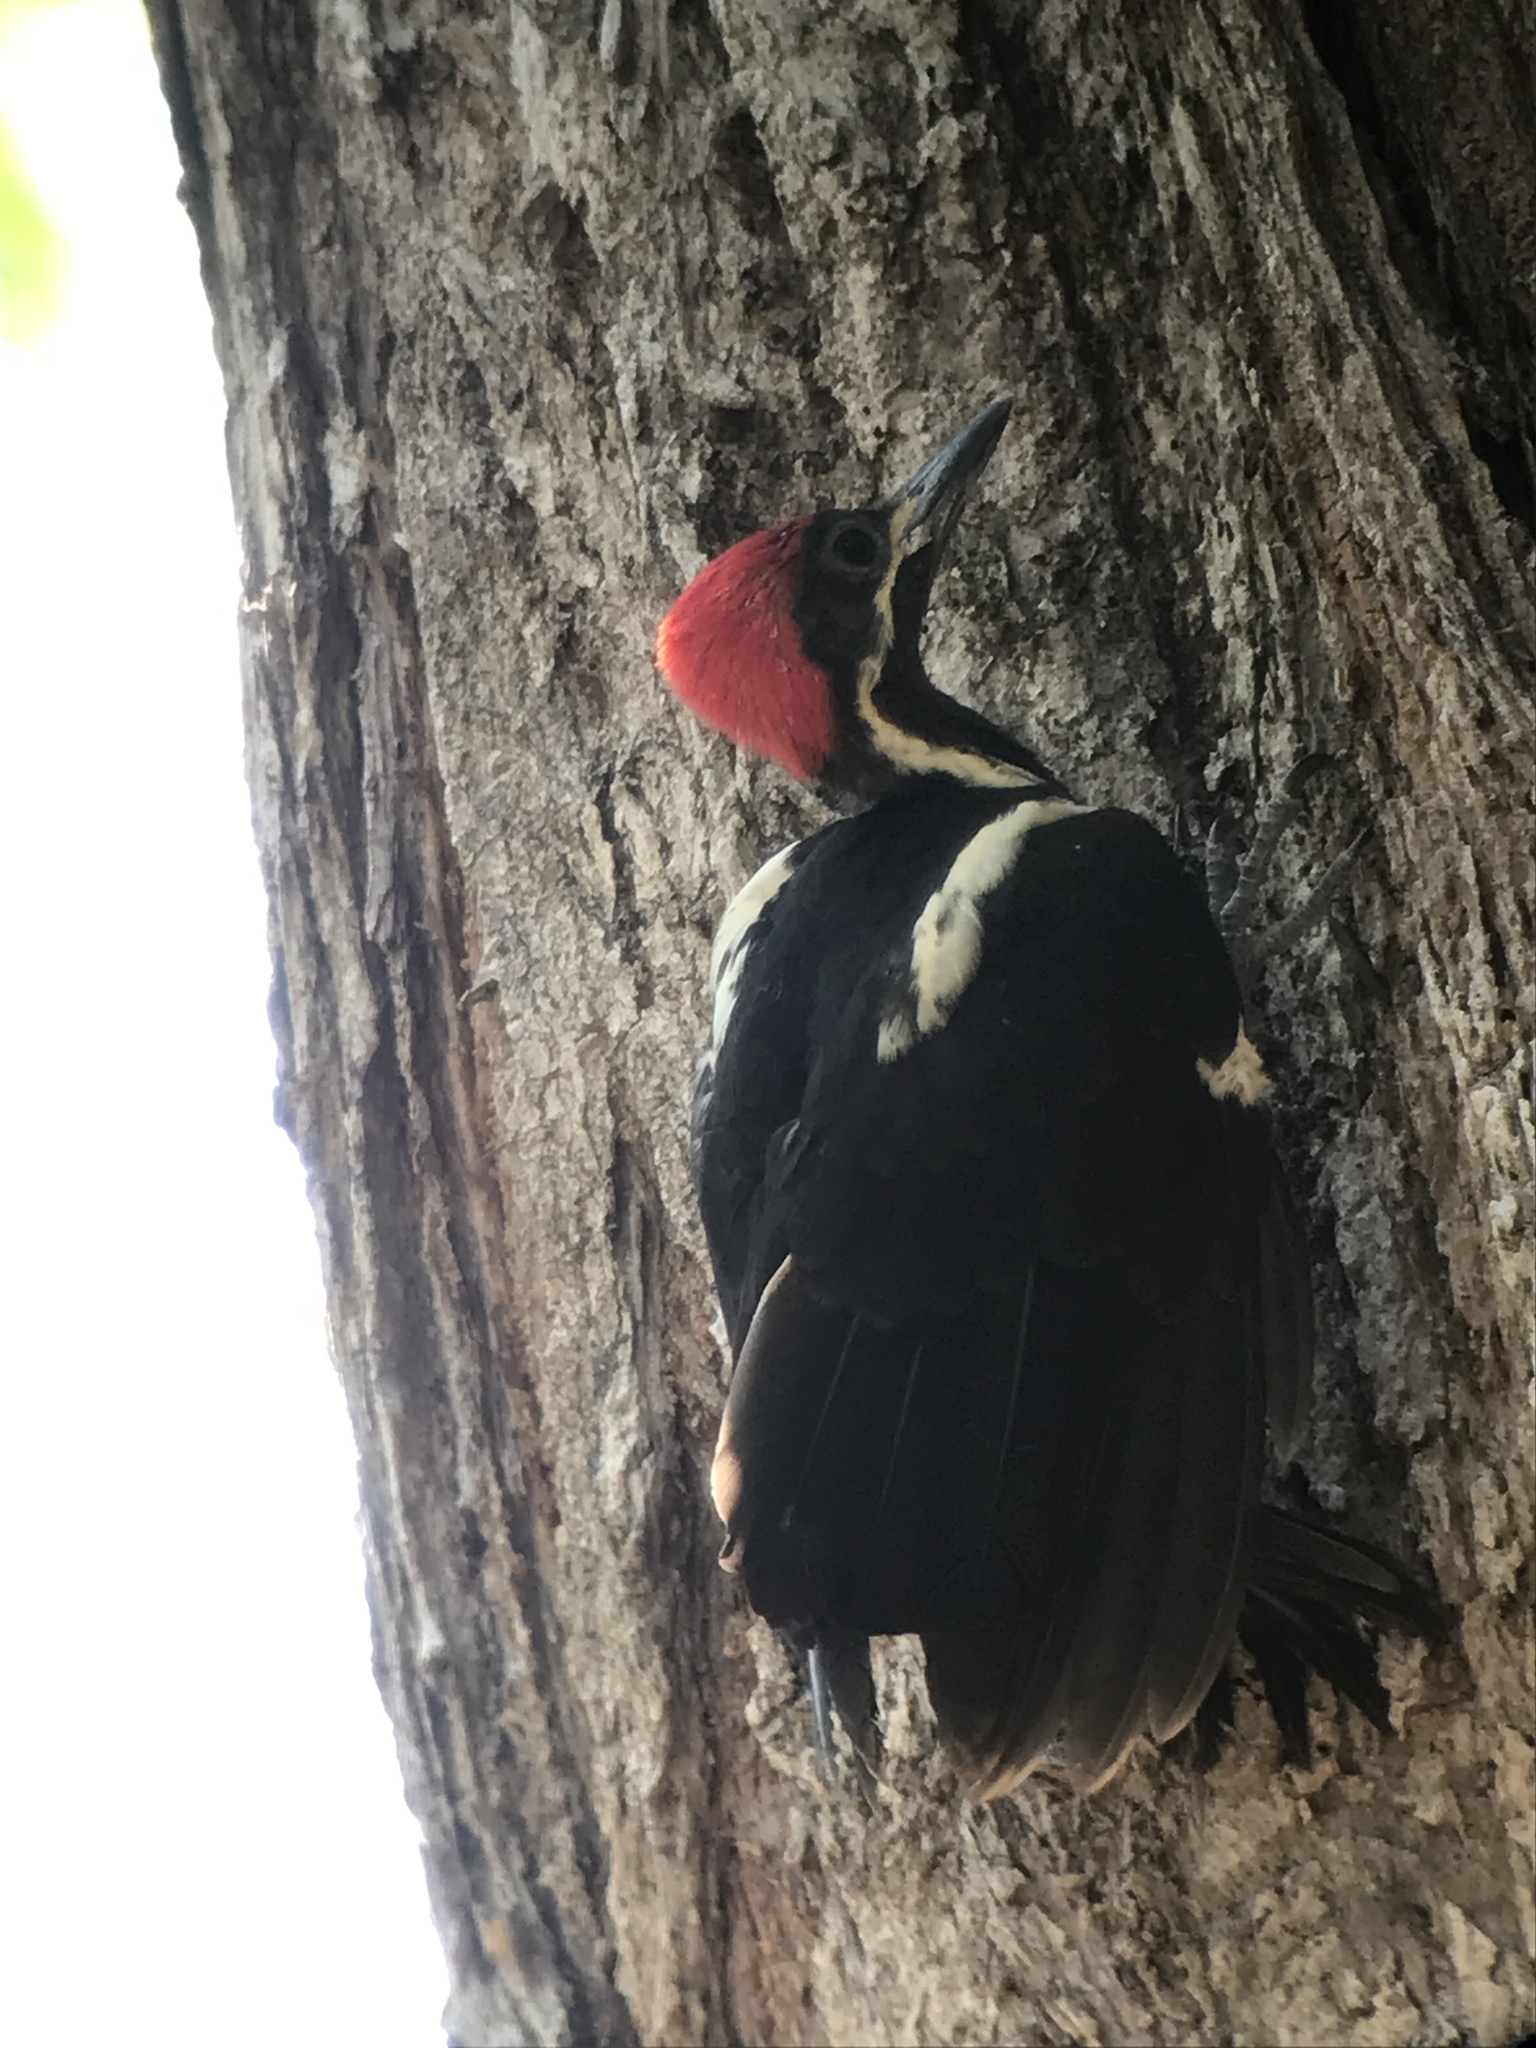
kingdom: Animalia
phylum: Chordata
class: Aves
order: Piciformes
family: Picidae
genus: Dryocopus
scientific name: Dryocopus lineatus
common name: Lineated woodpecker
